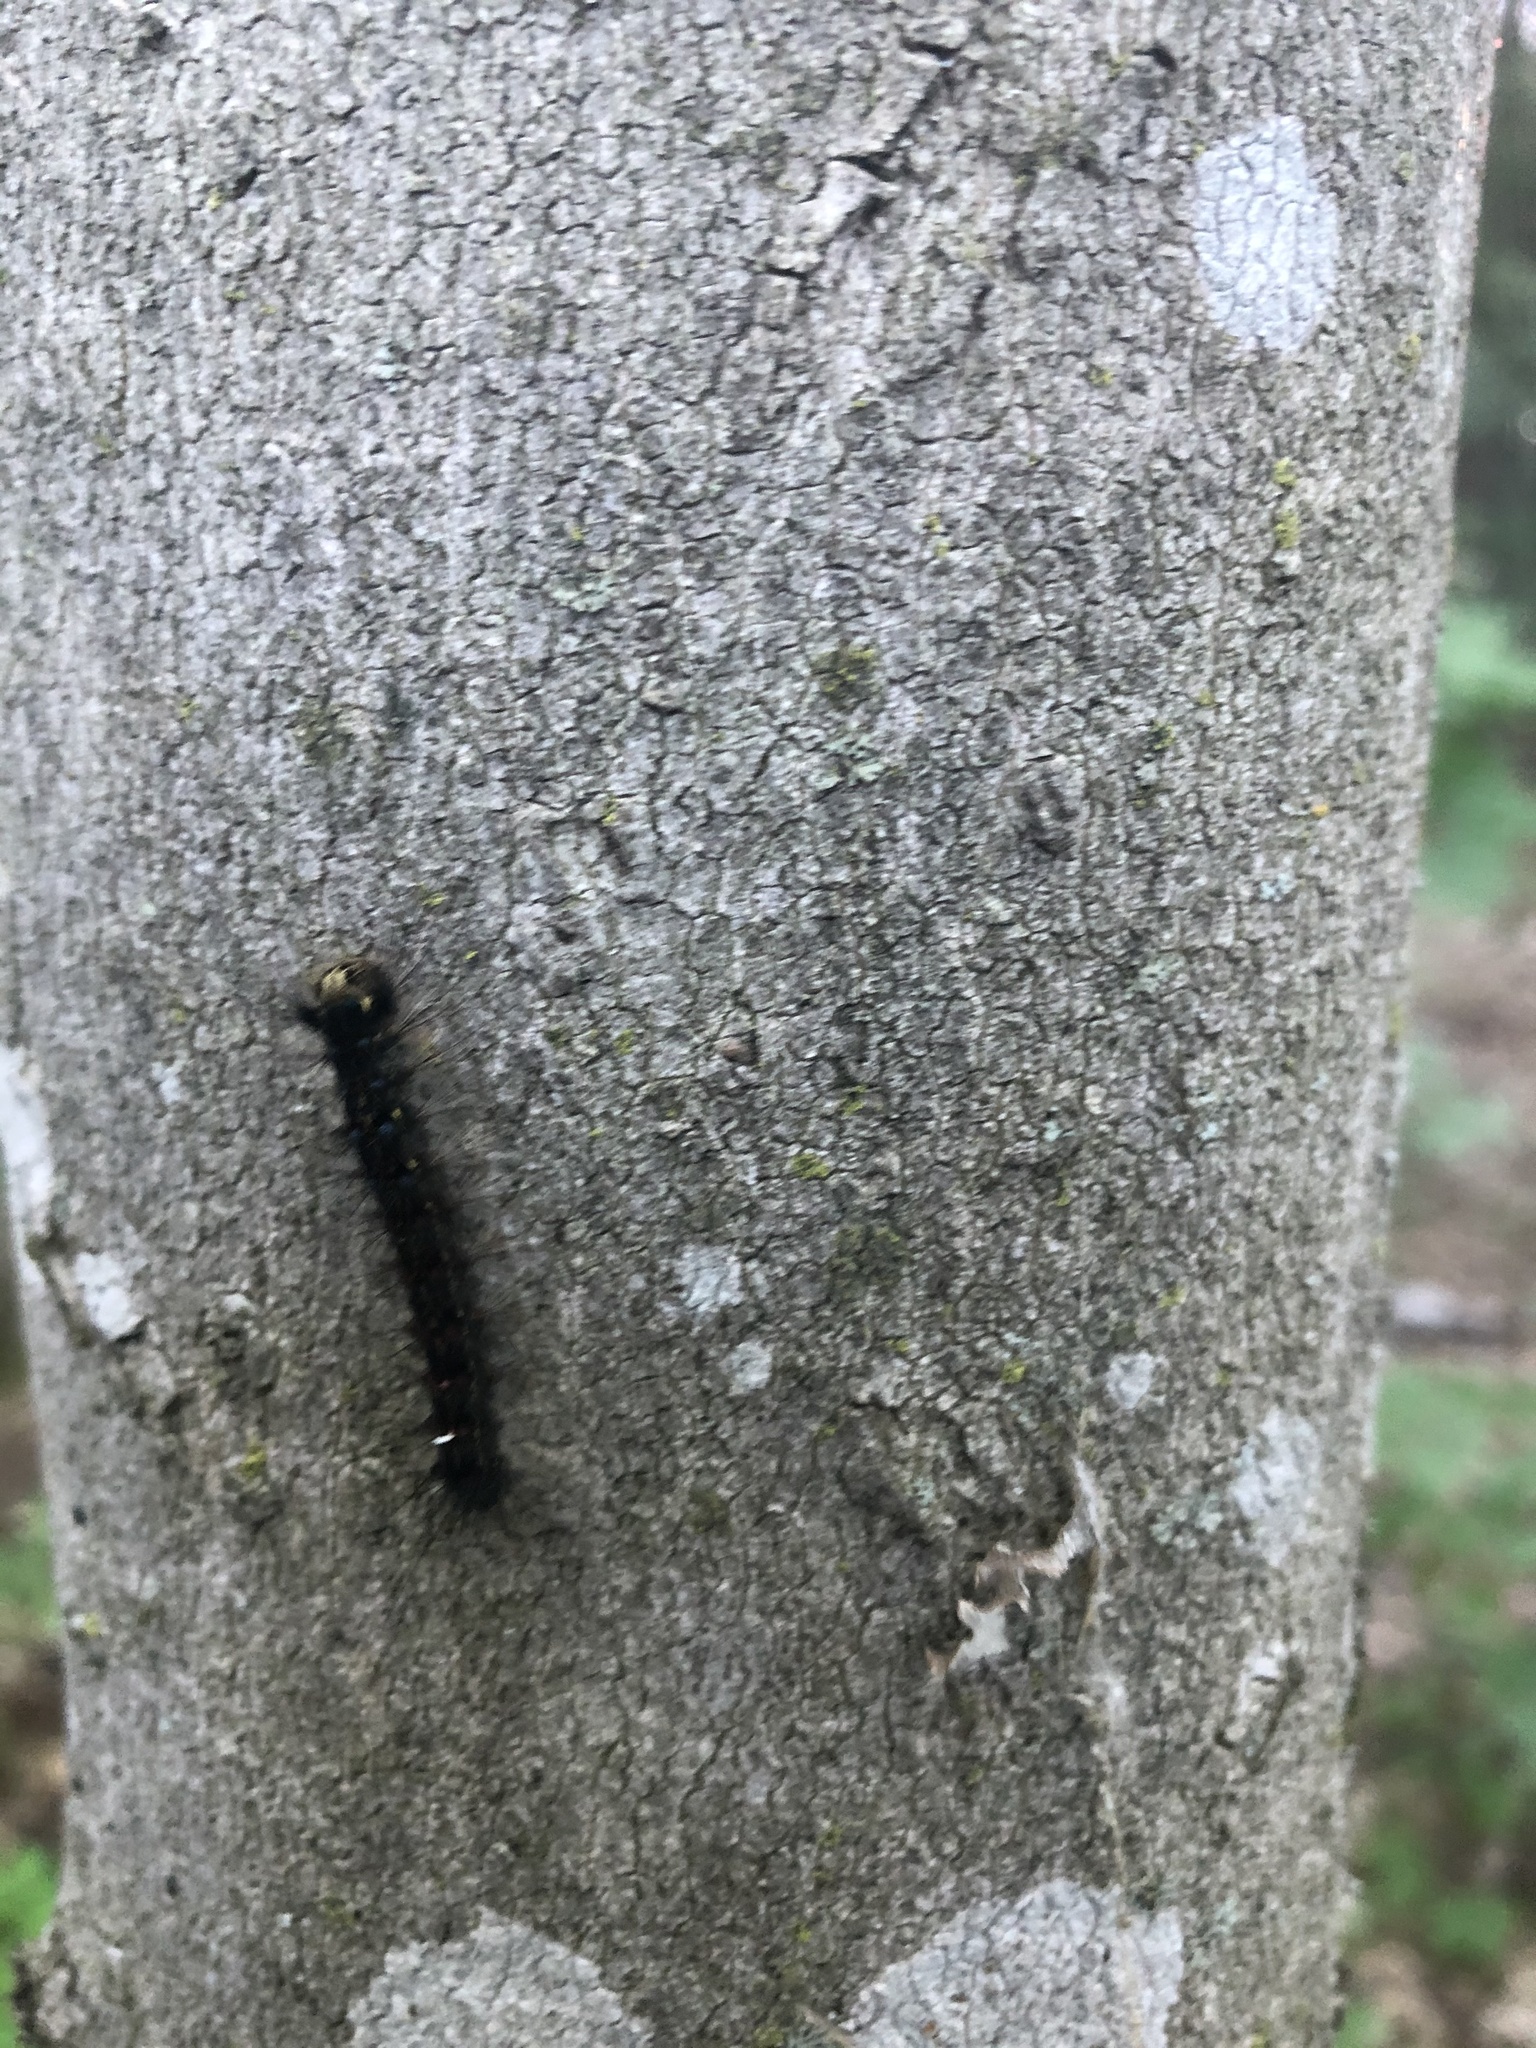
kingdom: Animalia
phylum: Arthropoda
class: Insecta
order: Lepidoptera
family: Erebidae
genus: Lymantria
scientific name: Lymantria dispar
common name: Gypsy moth
